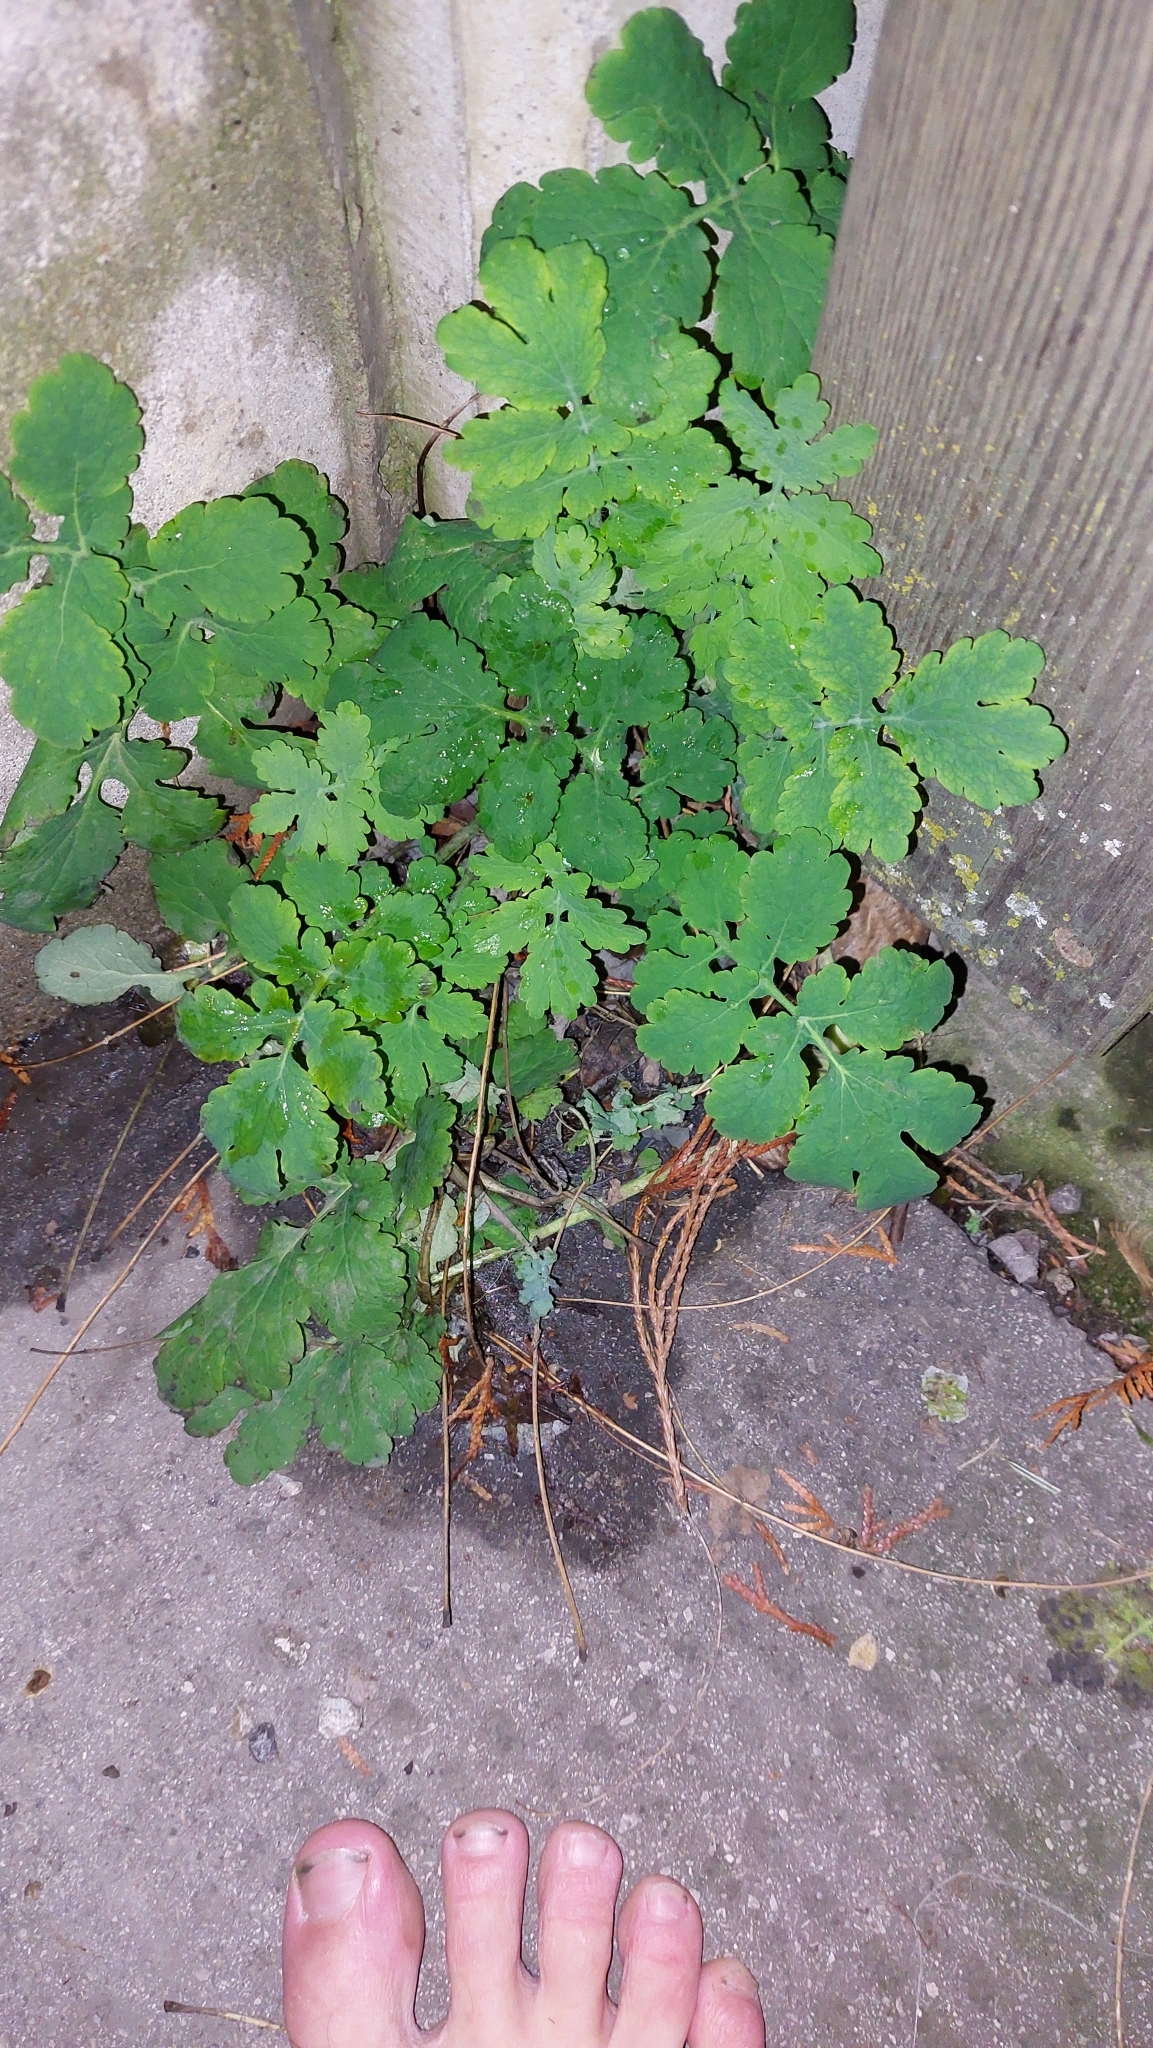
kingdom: Plantae
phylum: Tracheophyta
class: Magnoliopsida
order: Ranunculales
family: Papaveraceae
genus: Chelidonium
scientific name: Chelidonium majus
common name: Greater celandine
